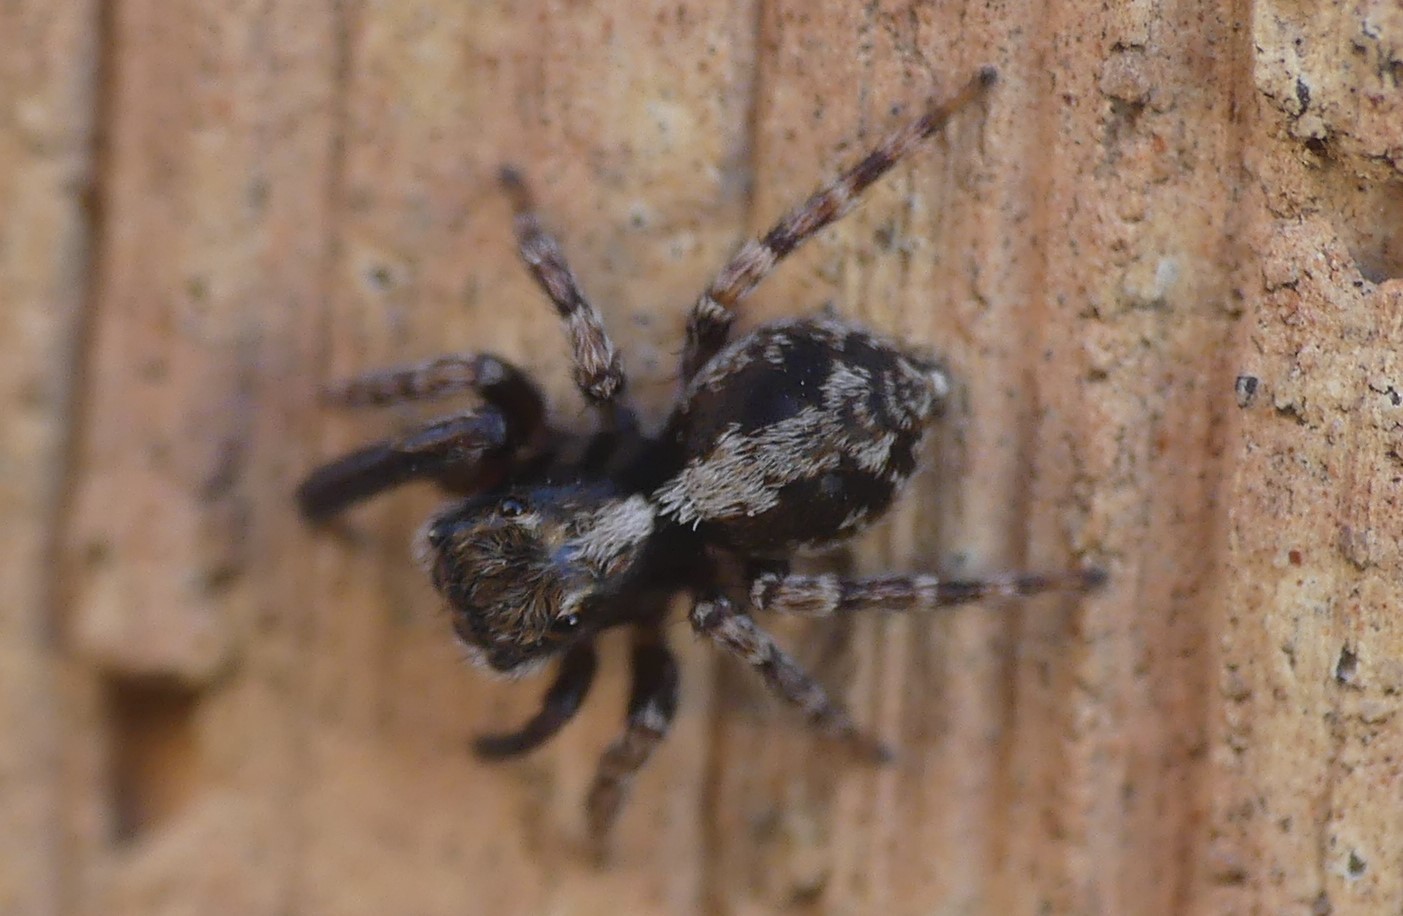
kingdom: Animalia
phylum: Arthropoda
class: Arachnida
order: Araneae
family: Salticidae
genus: Pseudeuophrys
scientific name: Pseudeuophrys lanigera
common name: Jumping spider
